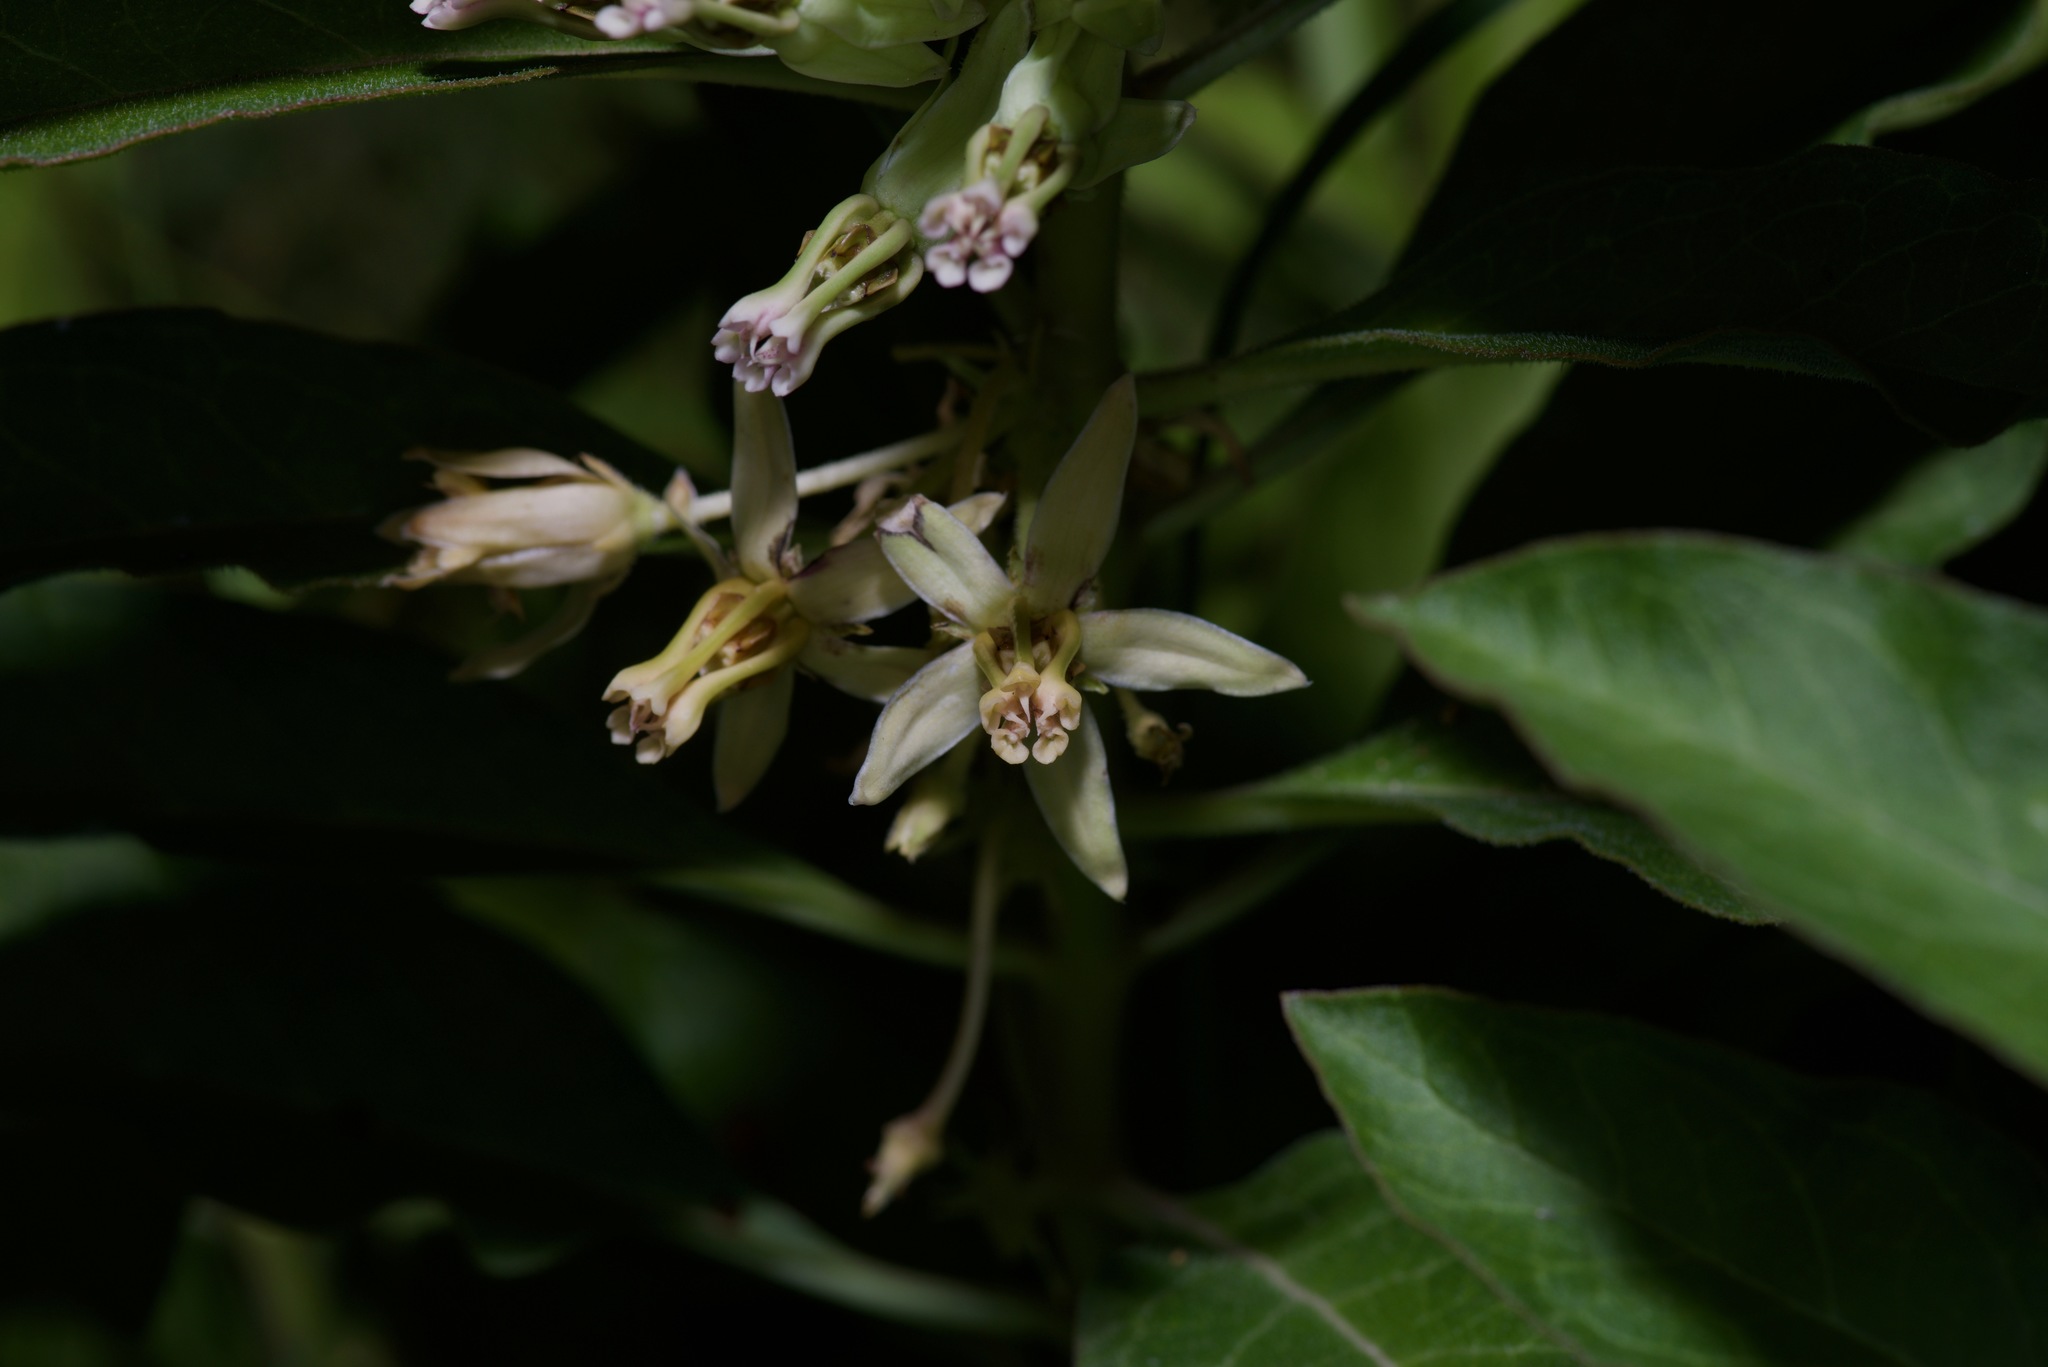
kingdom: Plantae
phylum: Tracheophyta
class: Magnoliopsida
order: Gentianales
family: Apocynaceae
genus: Asclepias
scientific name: Asclepias oenotheroides
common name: Zizotes milkweed
